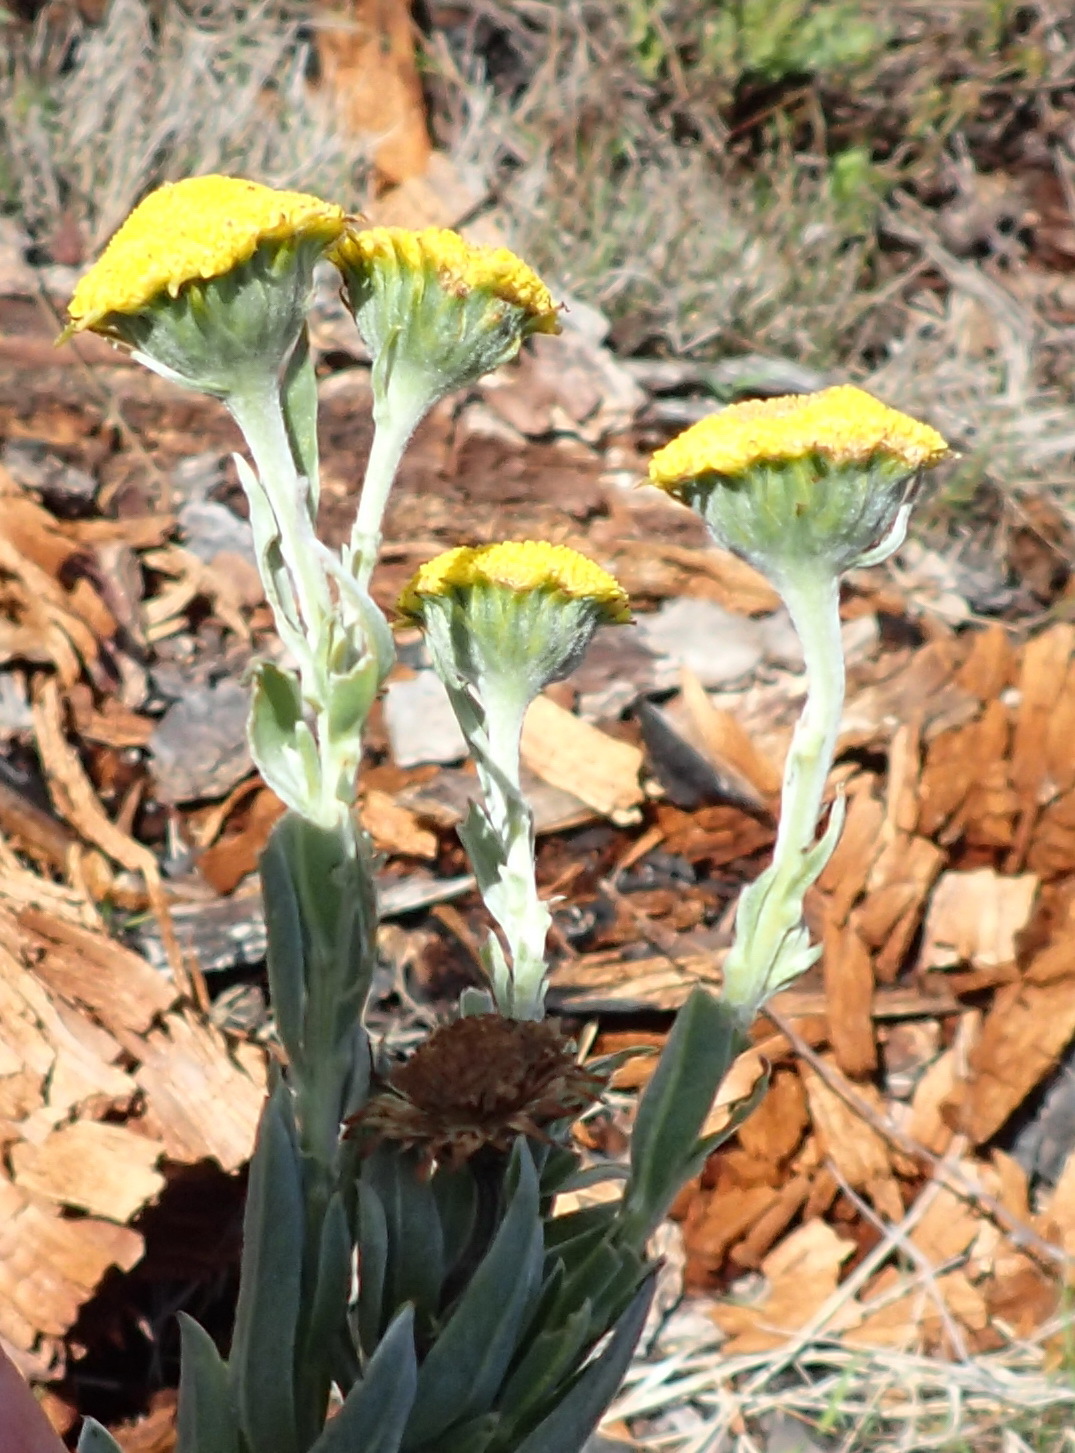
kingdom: Plantae
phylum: Tracheophyta
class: Magnoliopsida
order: Asterales
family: Asteraceae
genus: Schistostephium
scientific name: Schistostephium umbellatum
